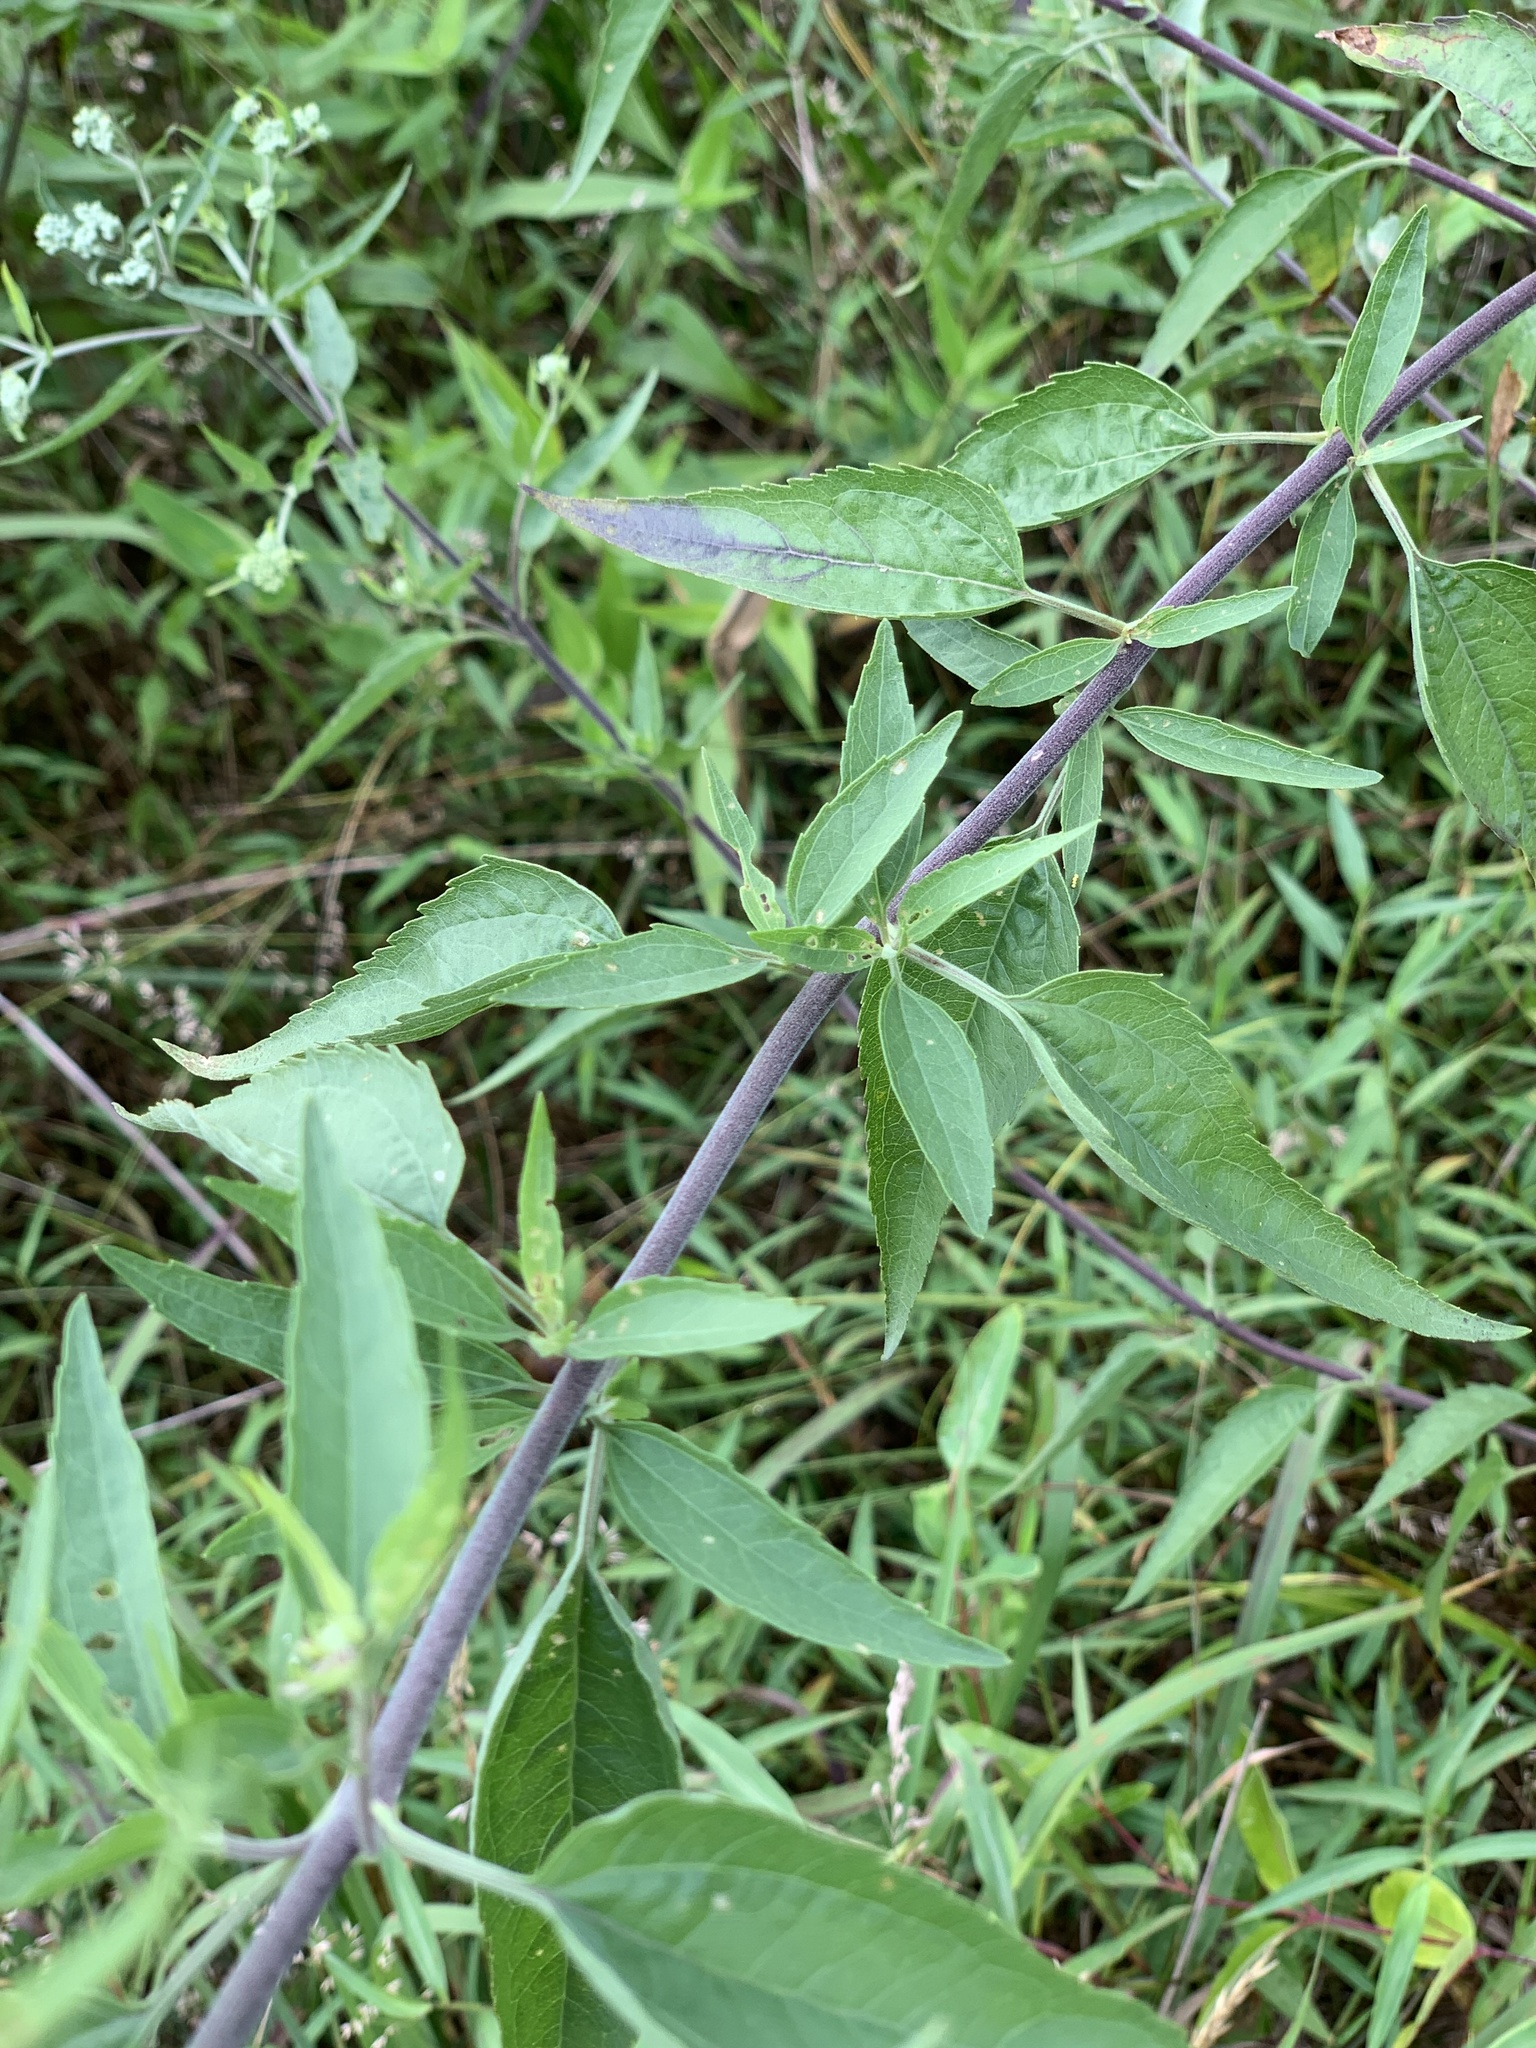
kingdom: Plantae
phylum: Tracheophyta
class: Magnoliopsida
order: Asterales
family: Asteraceae
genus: Eupatorium
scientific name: Eupatorium serotinum
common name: Late boneset
